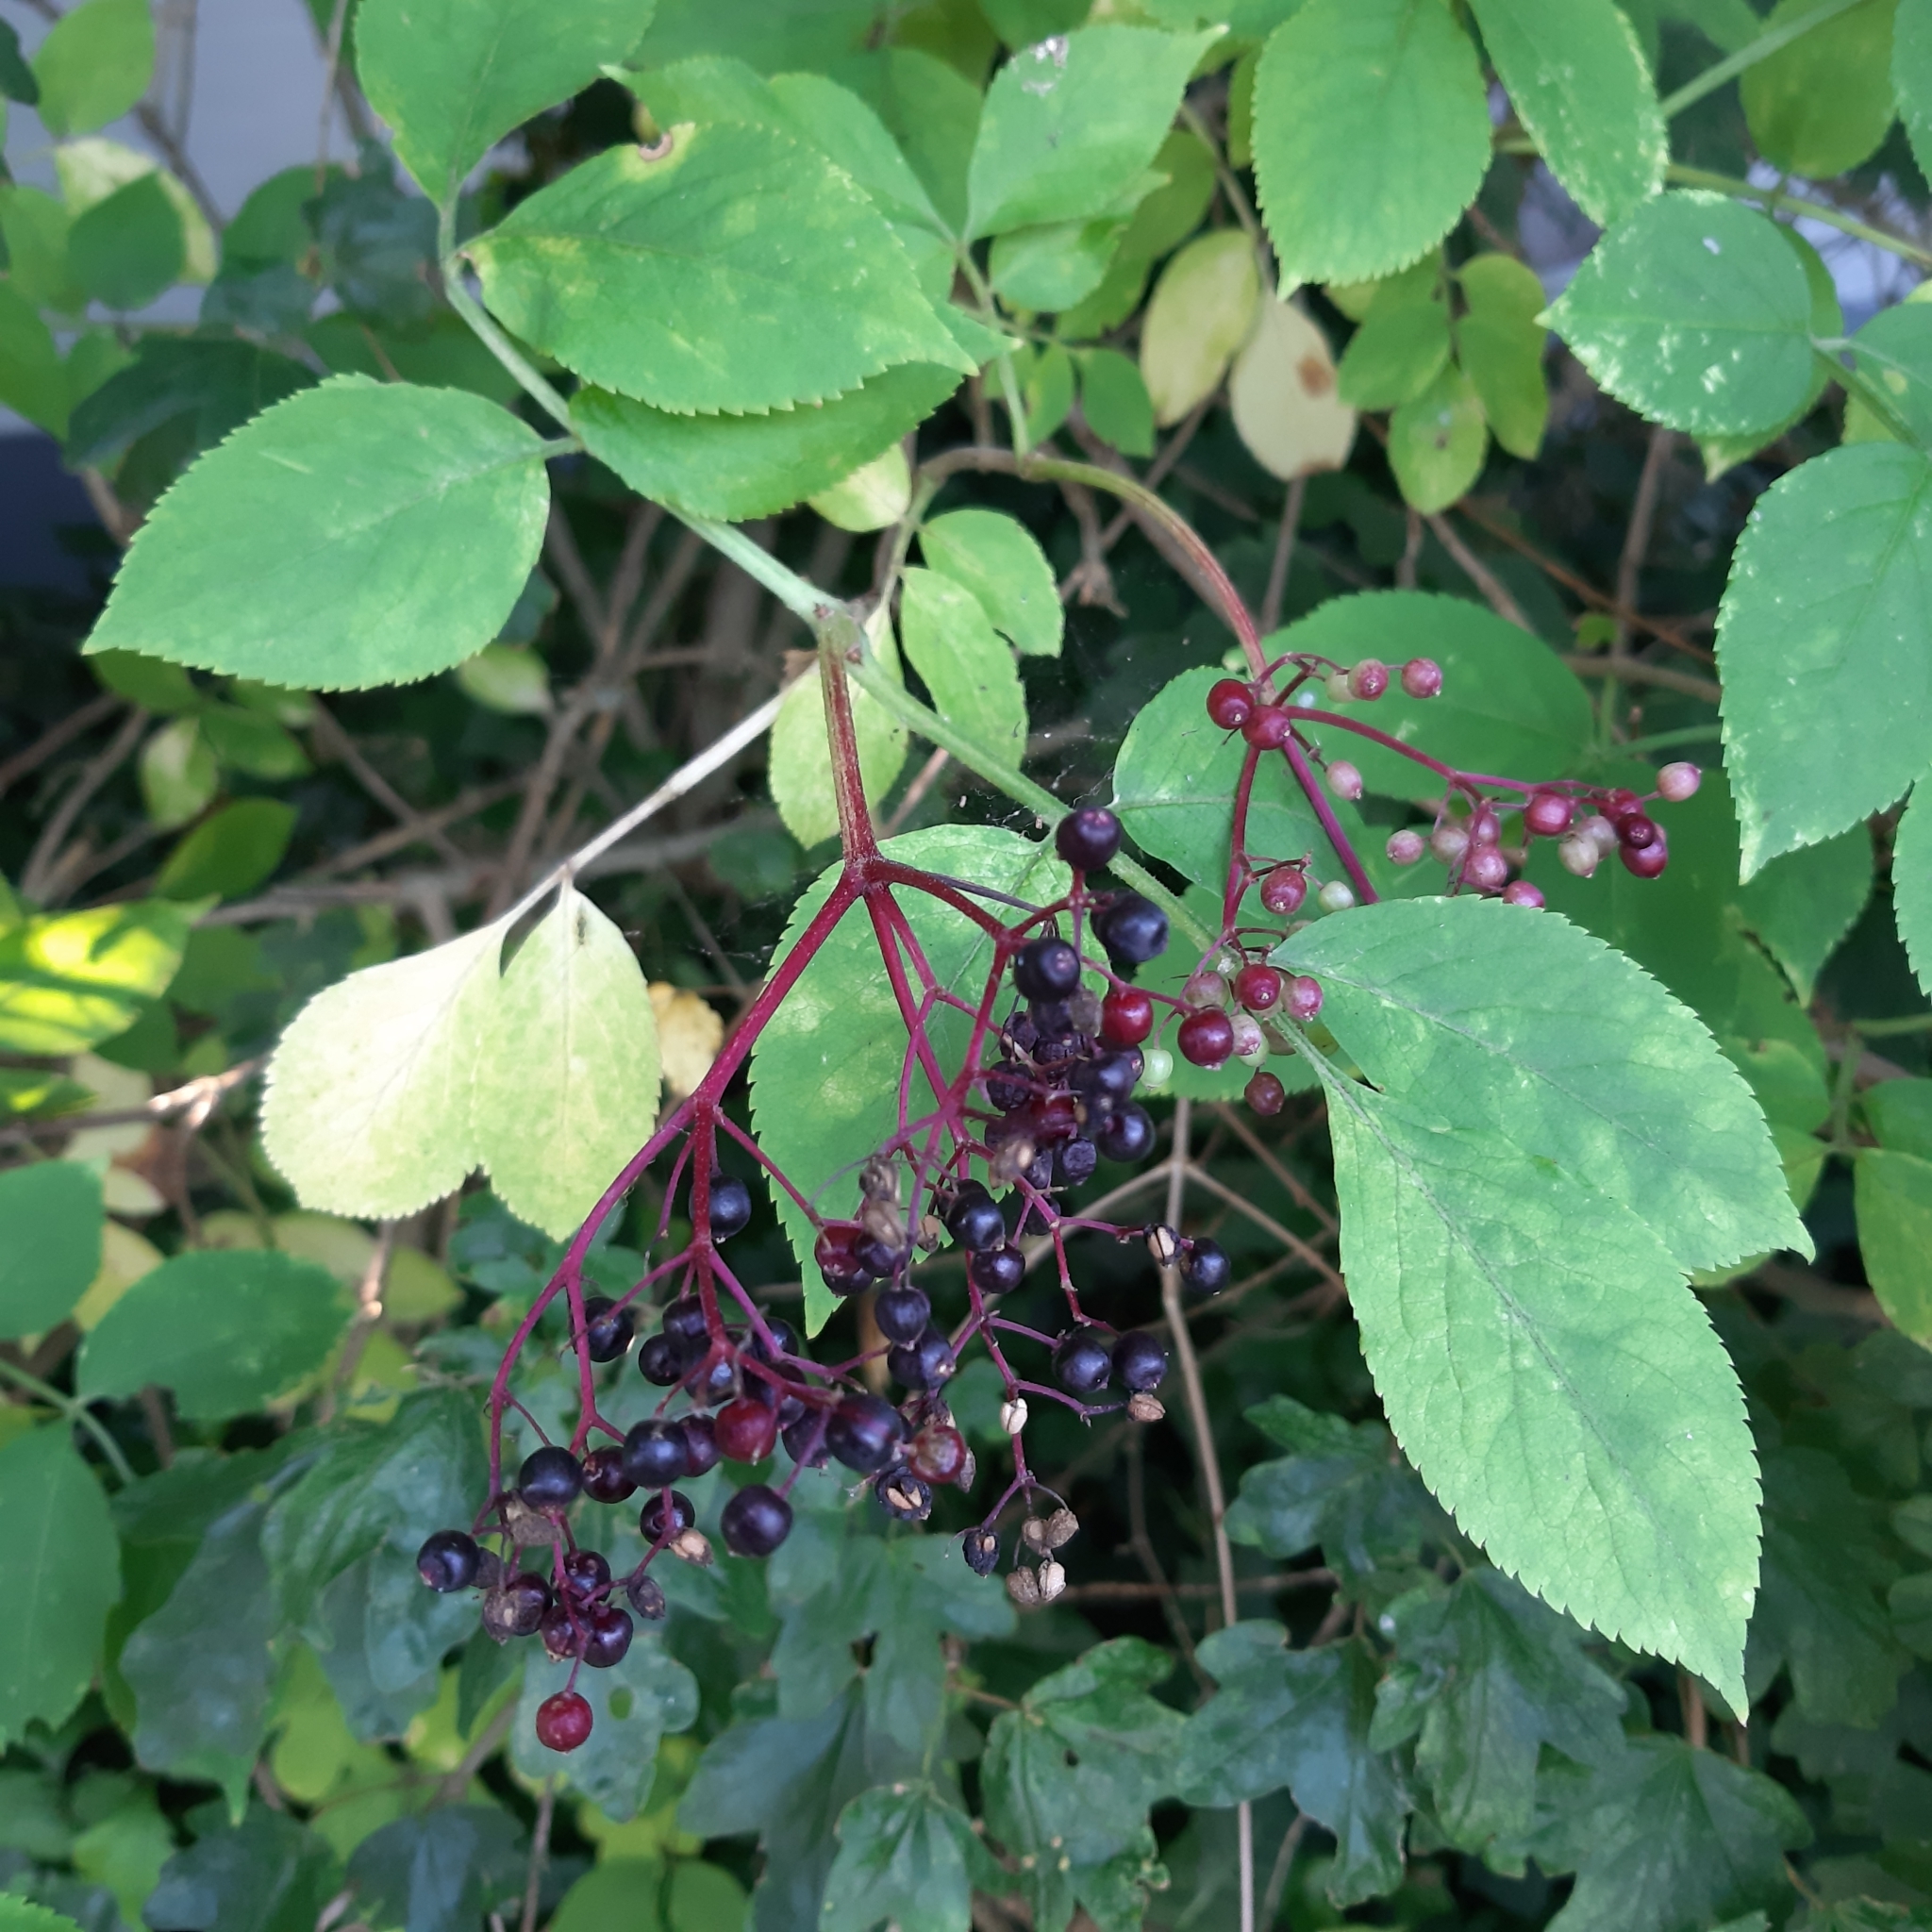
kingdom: Plantae
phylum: Tracheophyta
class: Magnoliopsida
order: Dipsacales
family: Viburnaceae
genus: Sambucus
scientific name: Sambucus nigra
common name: Elder
